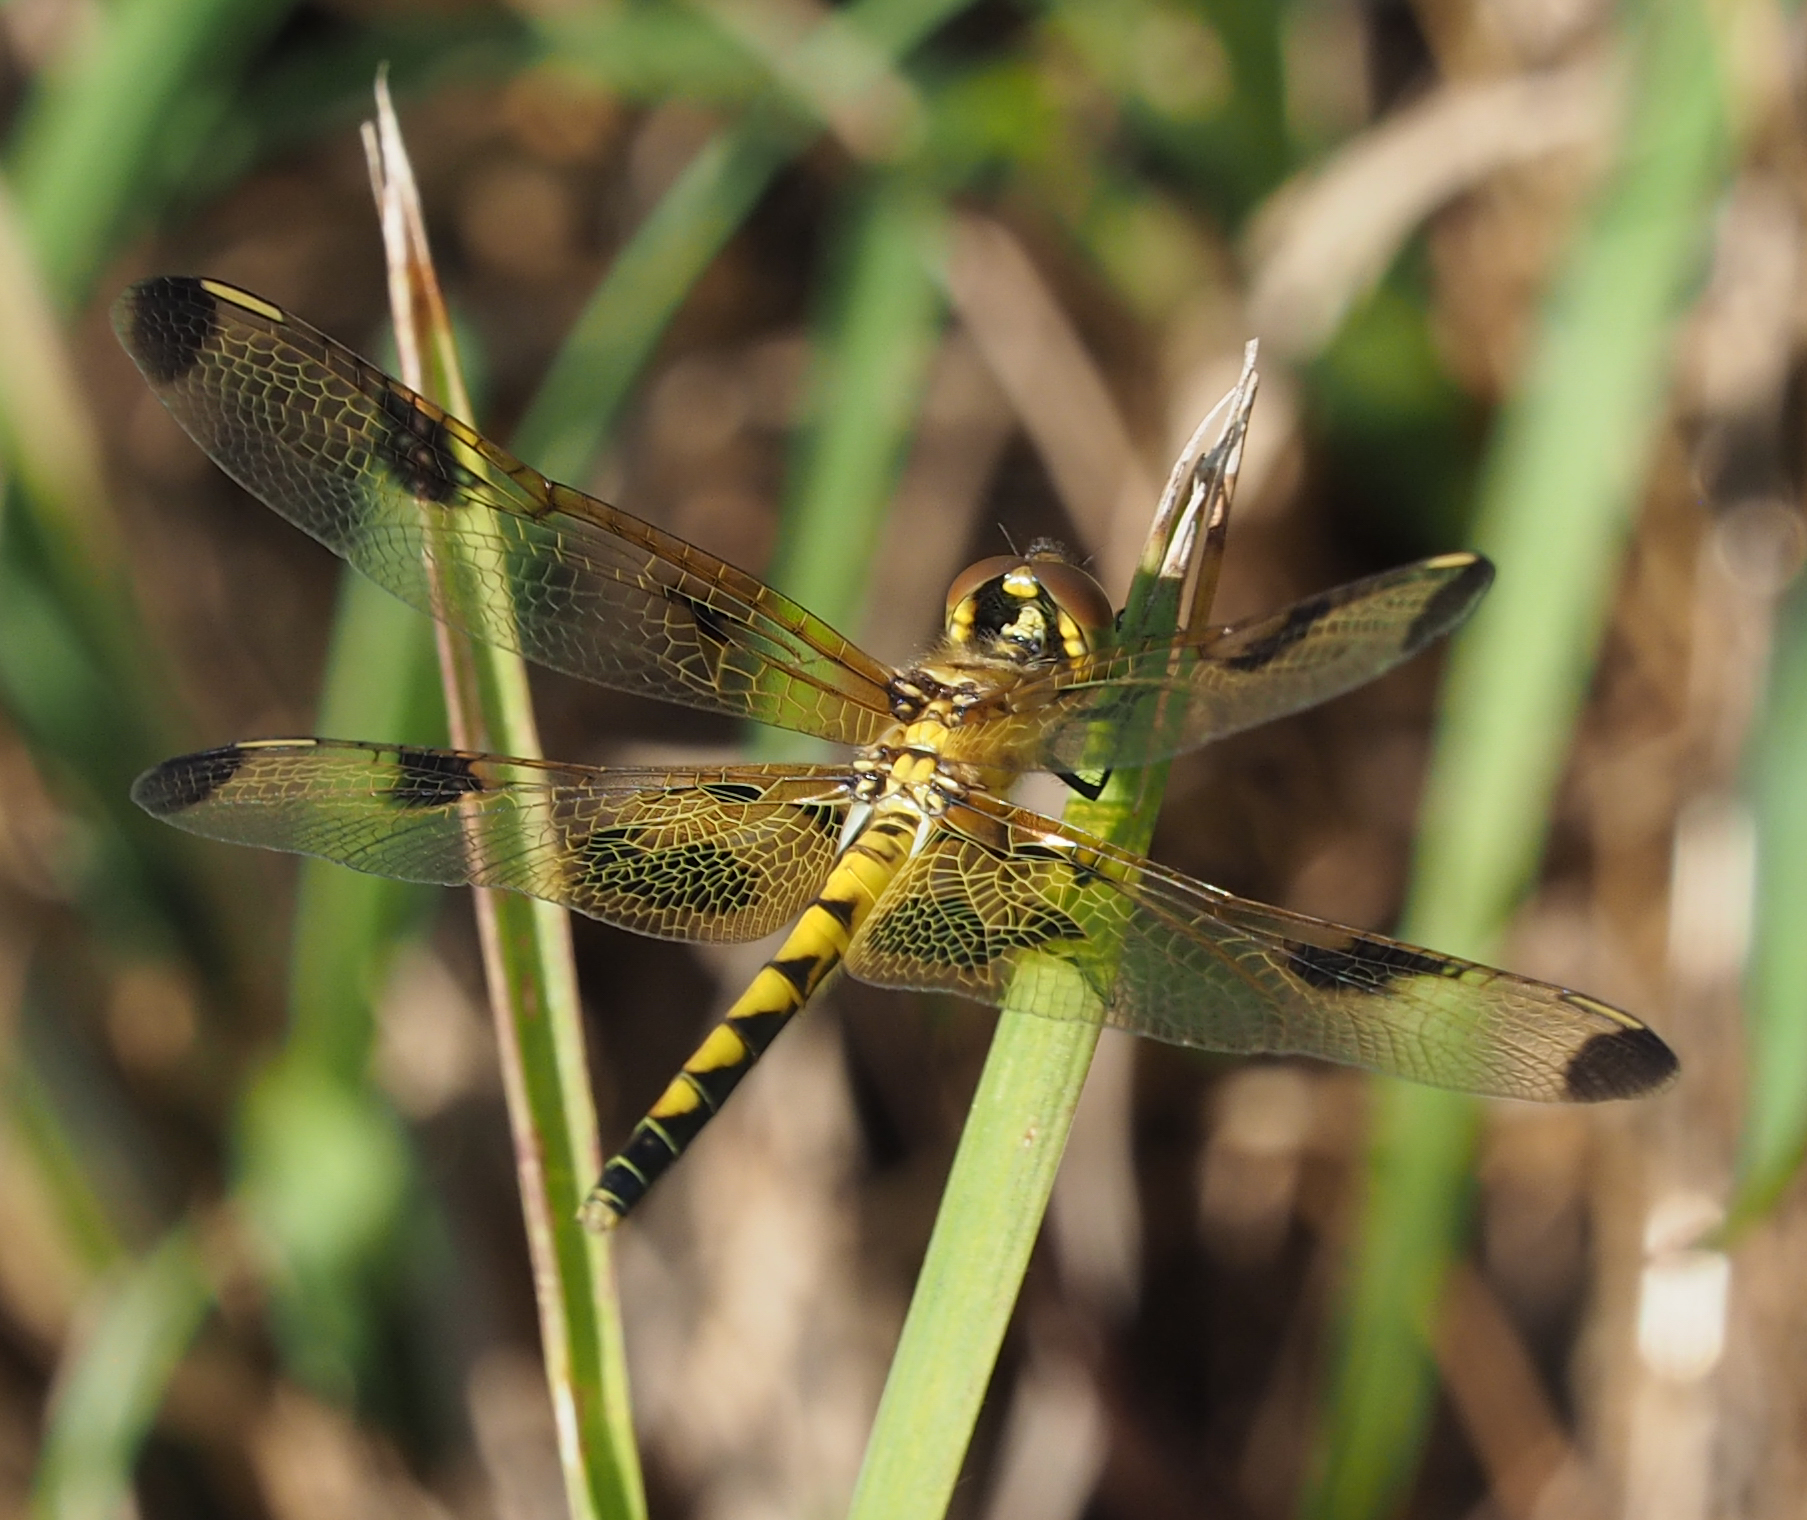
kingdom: Animalia
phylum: Arthropoda
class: Insecta
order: Odonata
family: Libellulidae
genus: Celithemis
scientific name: Celithemis elisa
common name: Calico pennant
